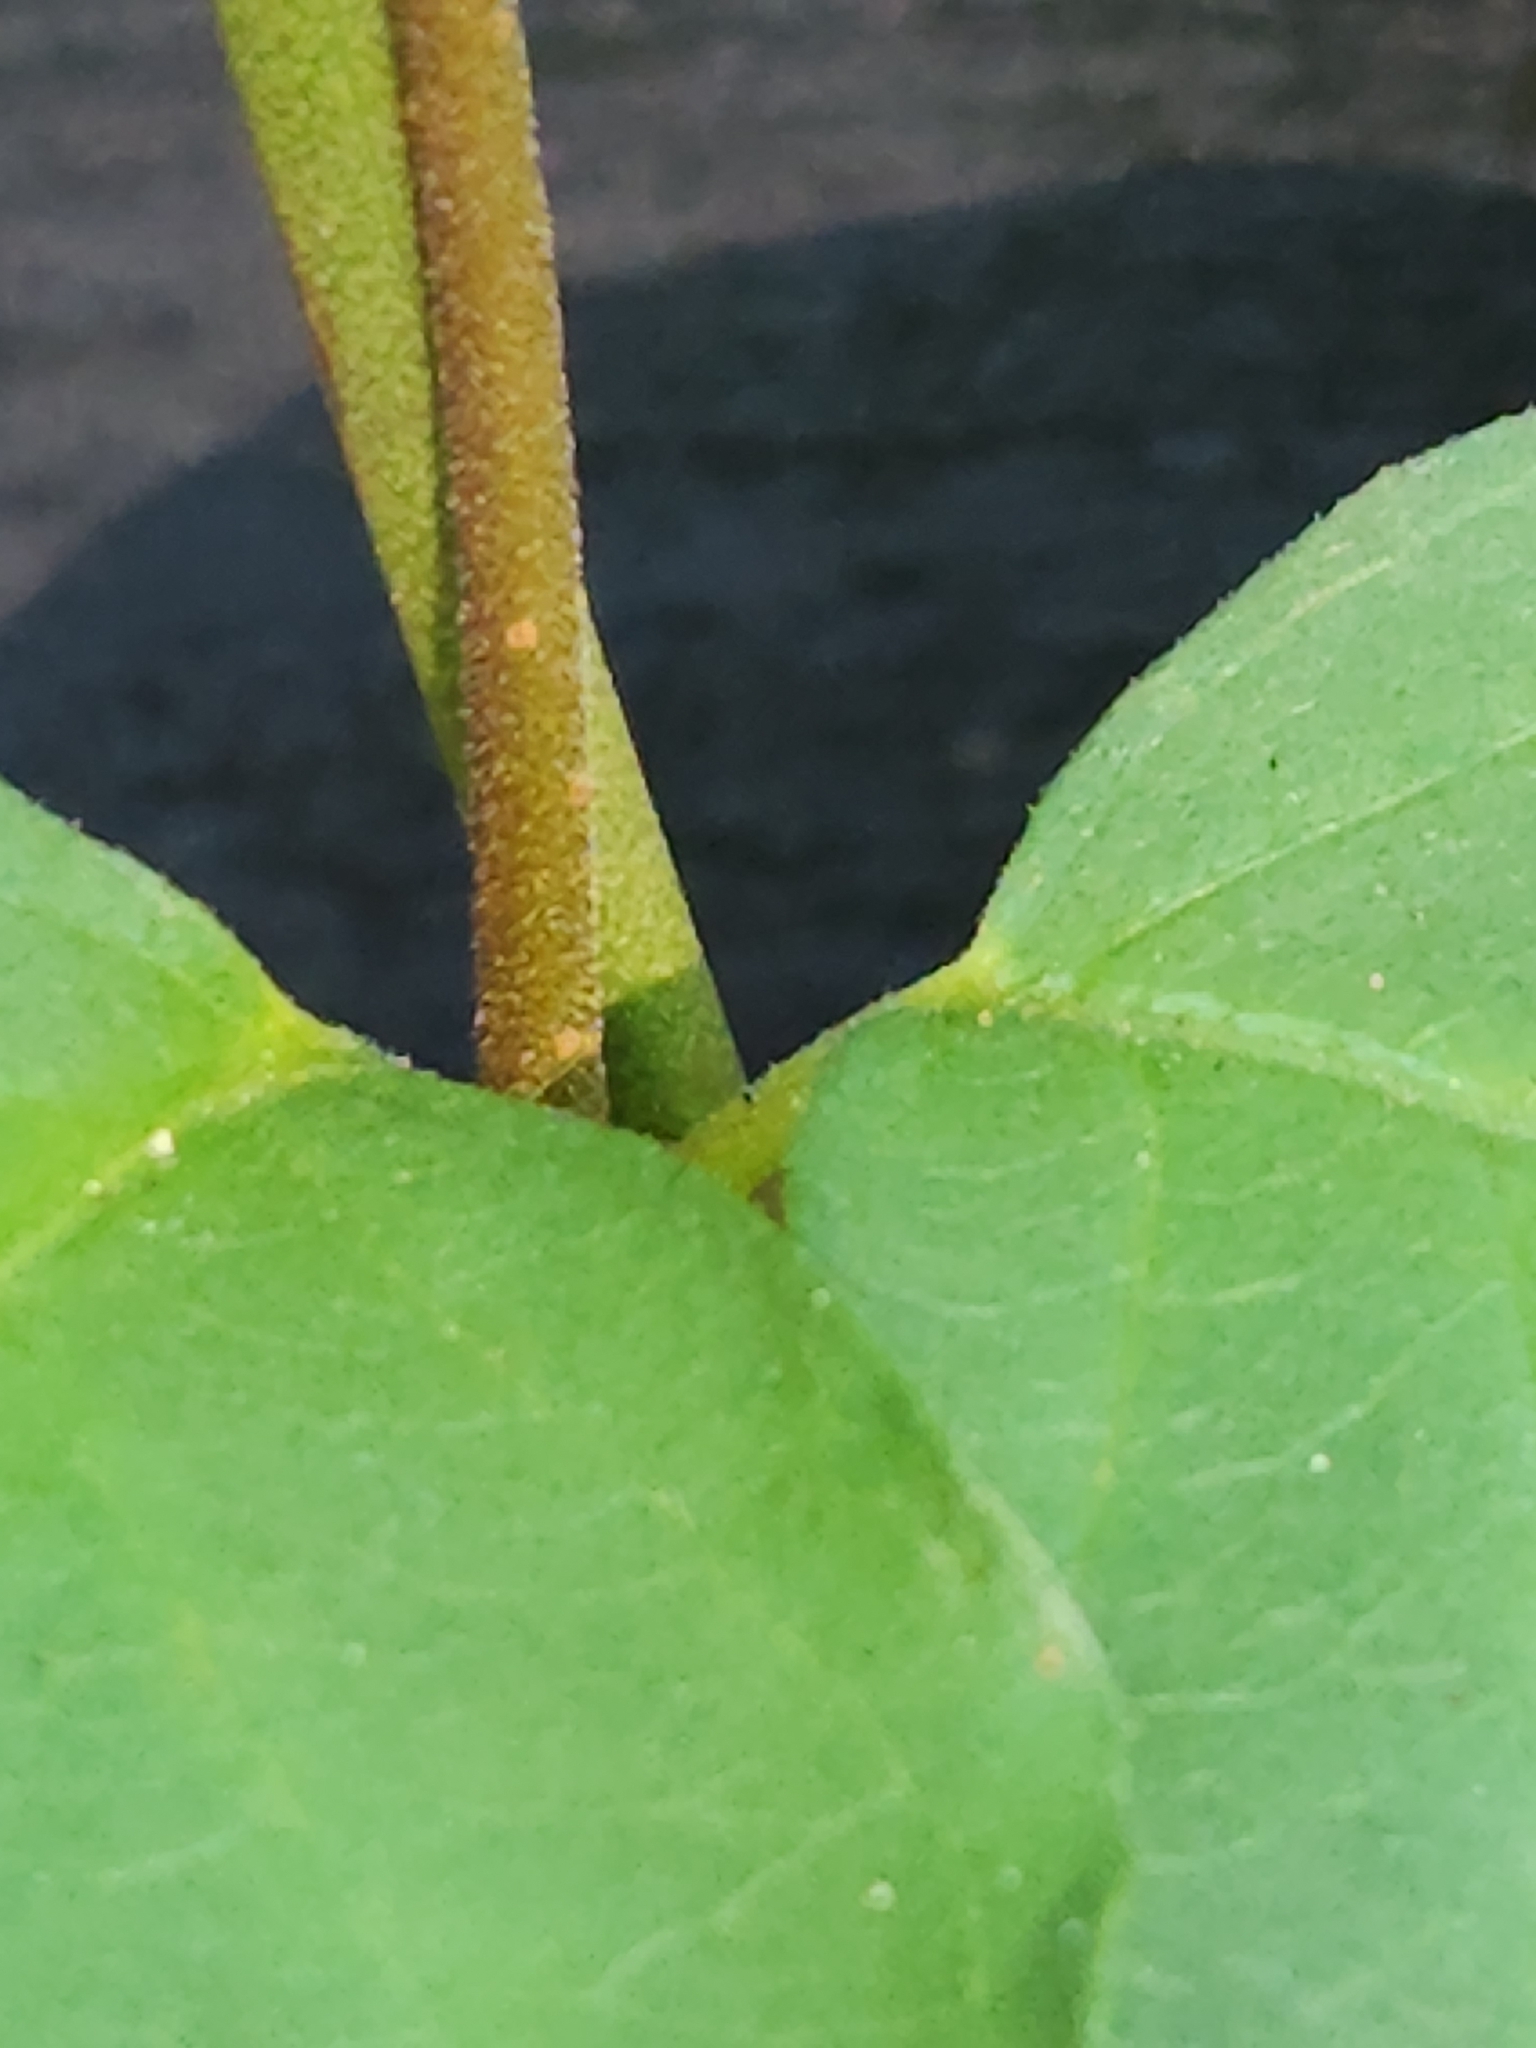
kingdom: Plantae
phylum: Tracheophyta
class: Magnoliopsida
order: Gentianales
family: Apocynaceae
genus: Thyrsanthella
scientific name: Thyrsanthella difformis
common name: Climbing dogbane
